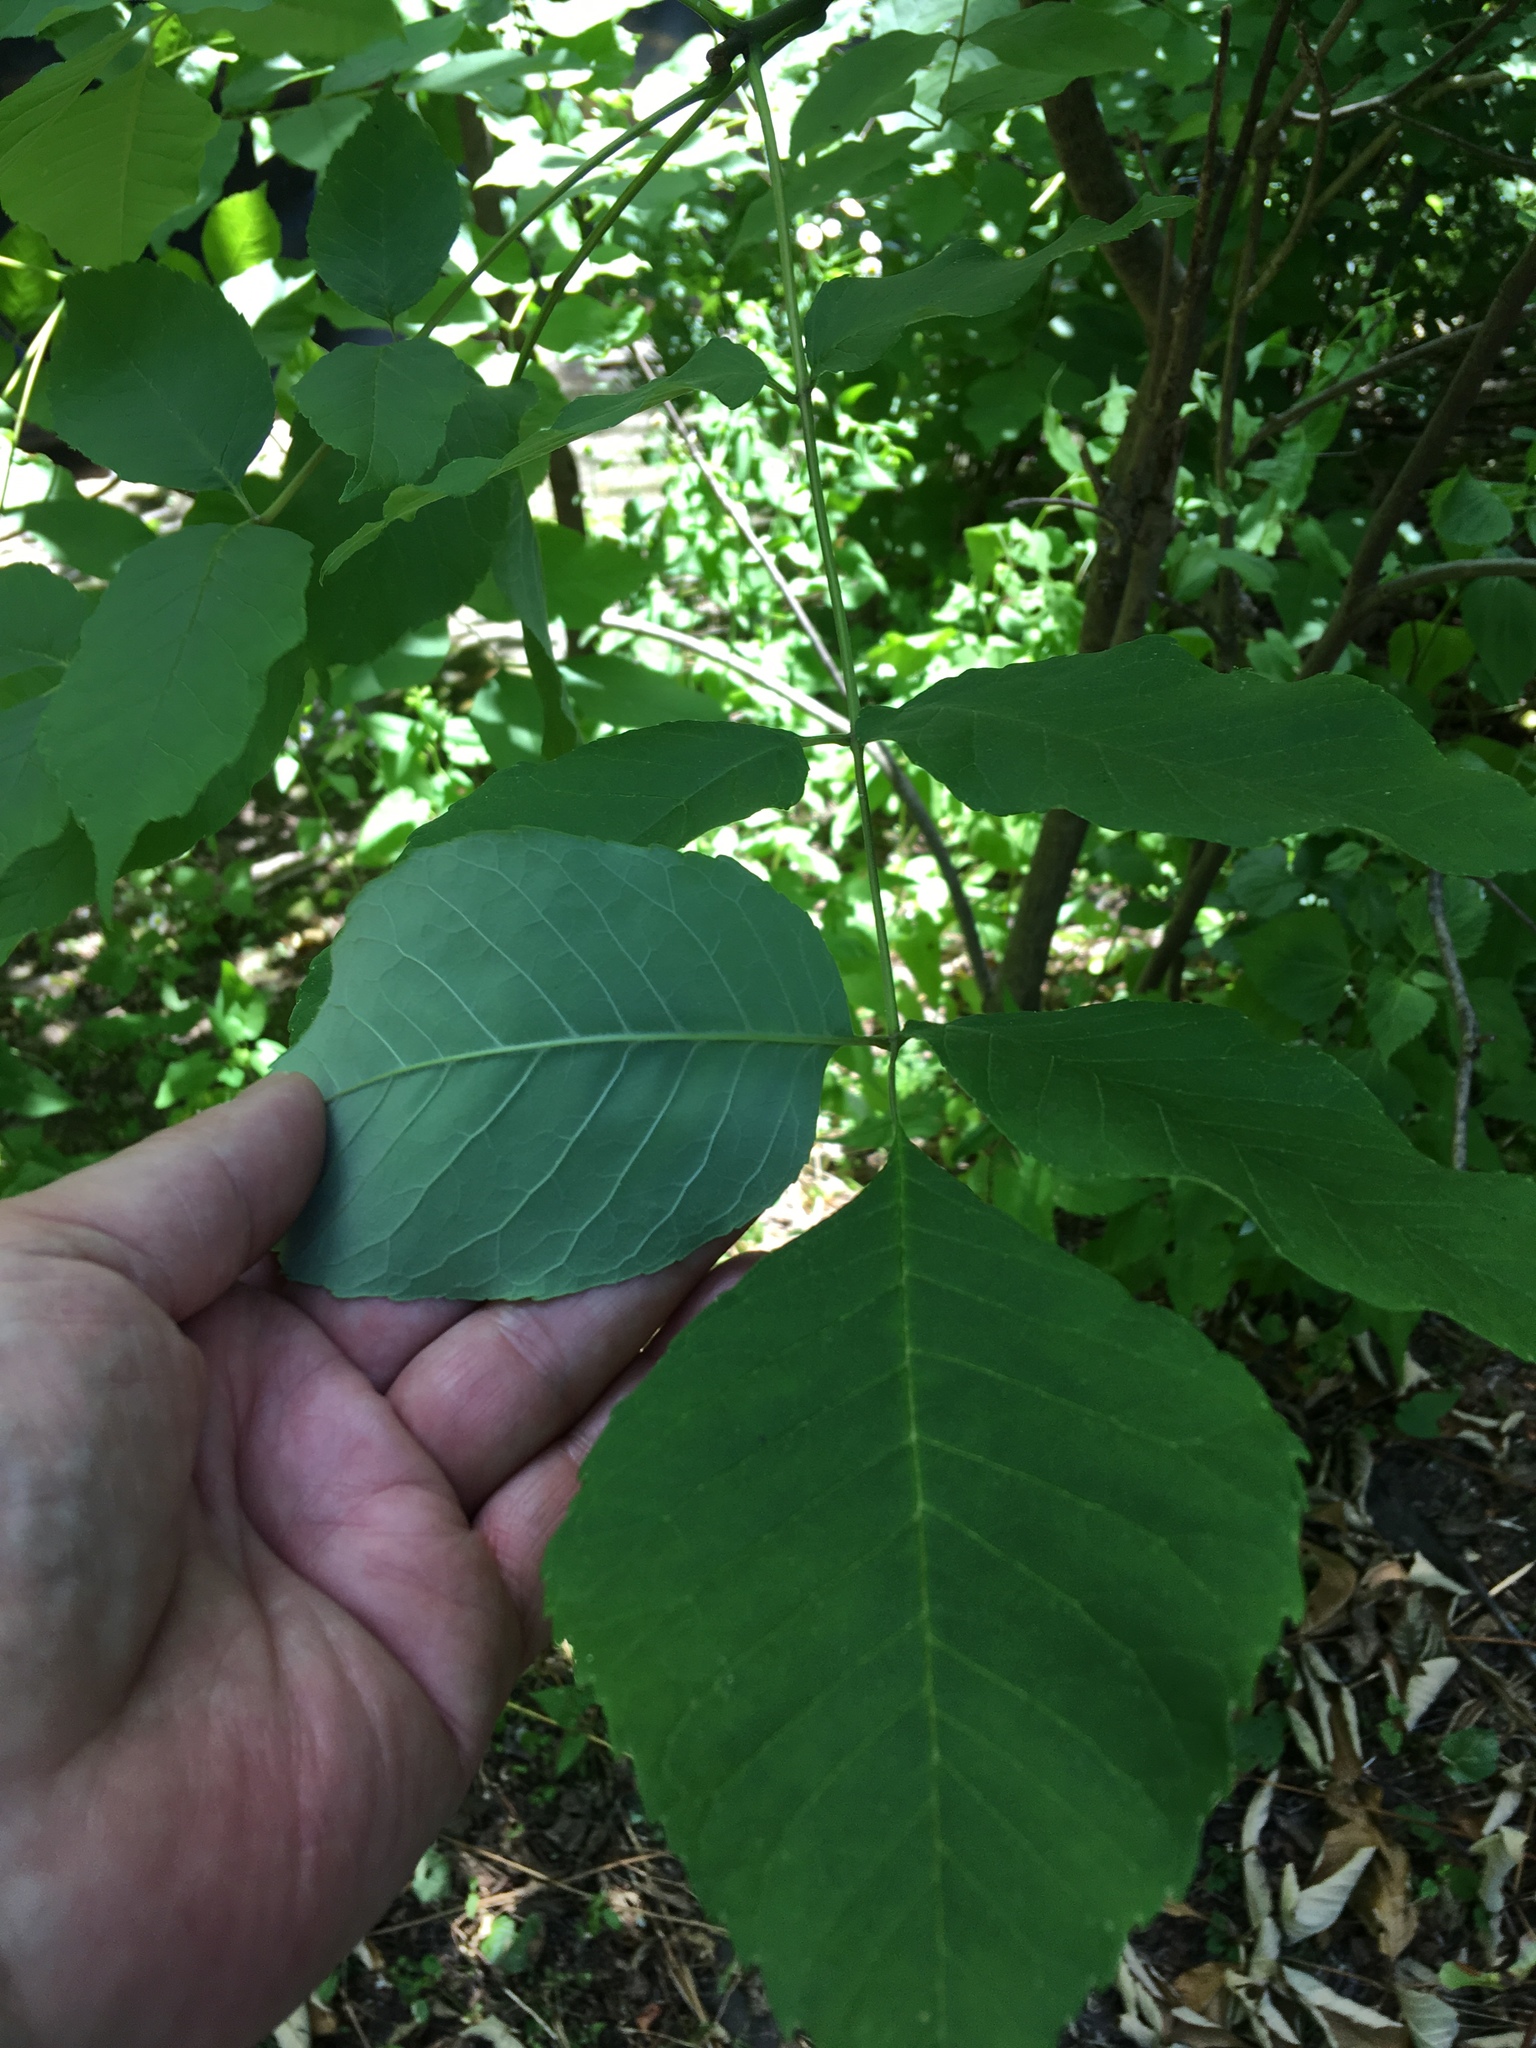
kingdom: Plantae
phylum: Tracheophyta
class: Magnoliopsida
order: Lamiales
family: Oleaceae
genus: Fraxinus
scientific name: Fraxinus americana
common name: White ash
